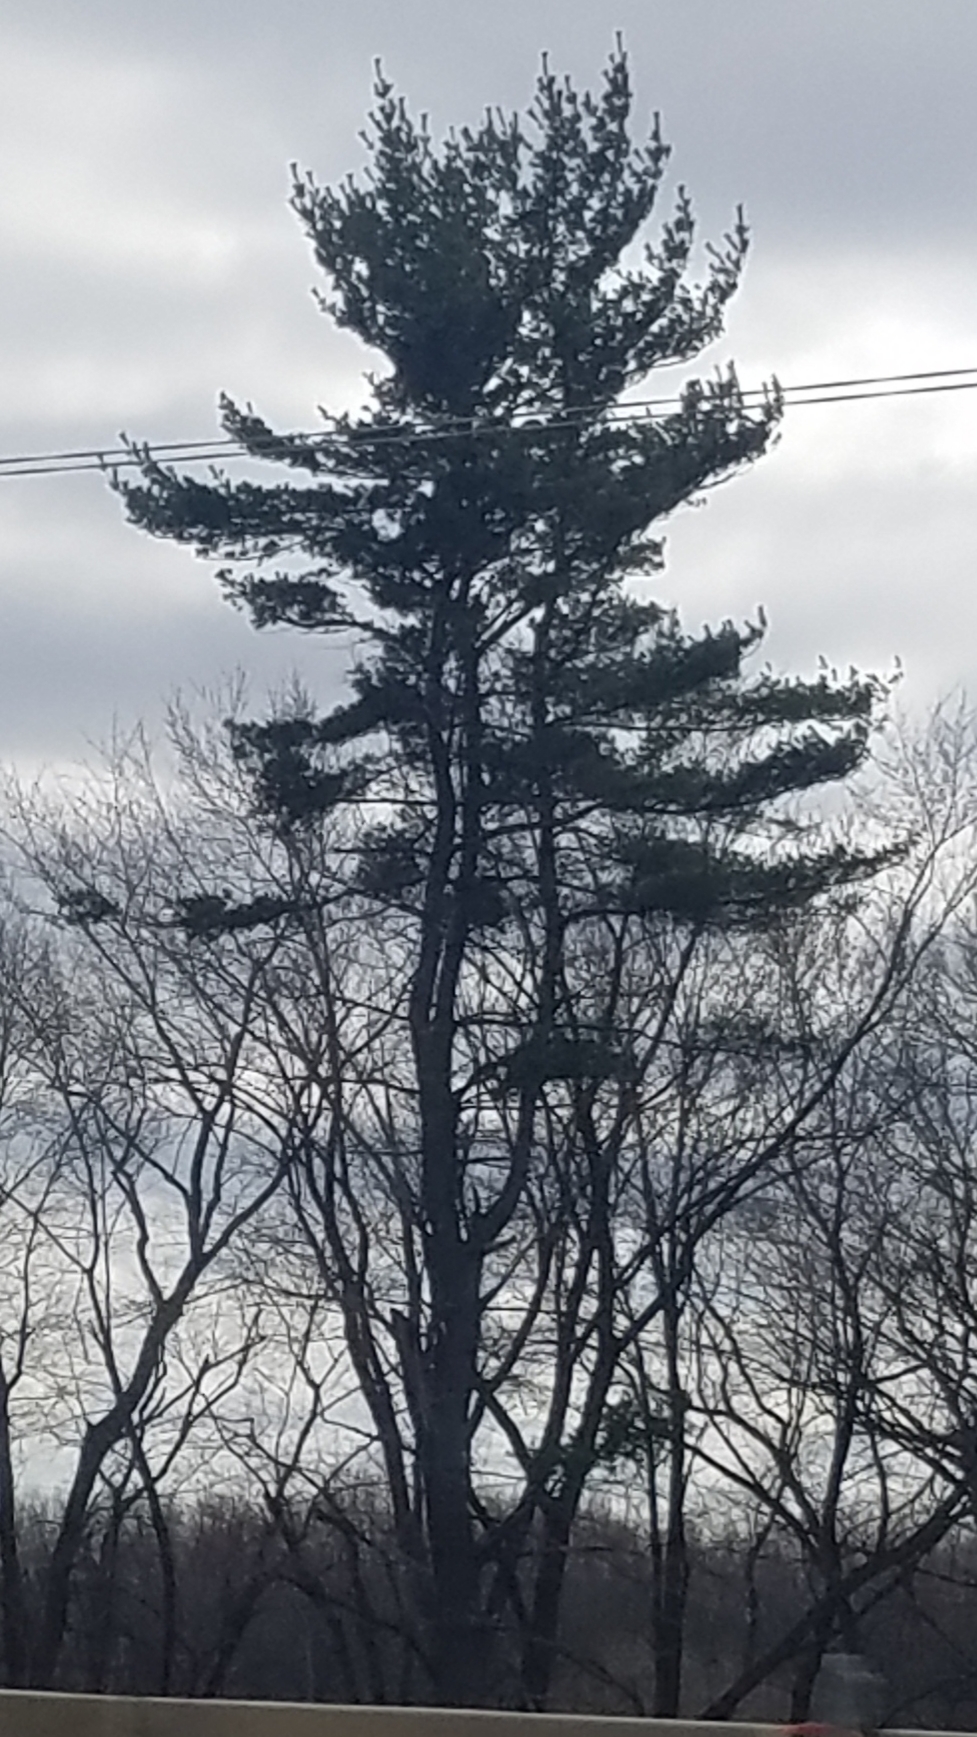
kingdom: Plantae
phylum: Tracheophyta
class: Pinopsida
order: Pinales
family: Pinaceae
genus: Pinus
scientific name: Pinus strobus
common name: Weymouth pine
